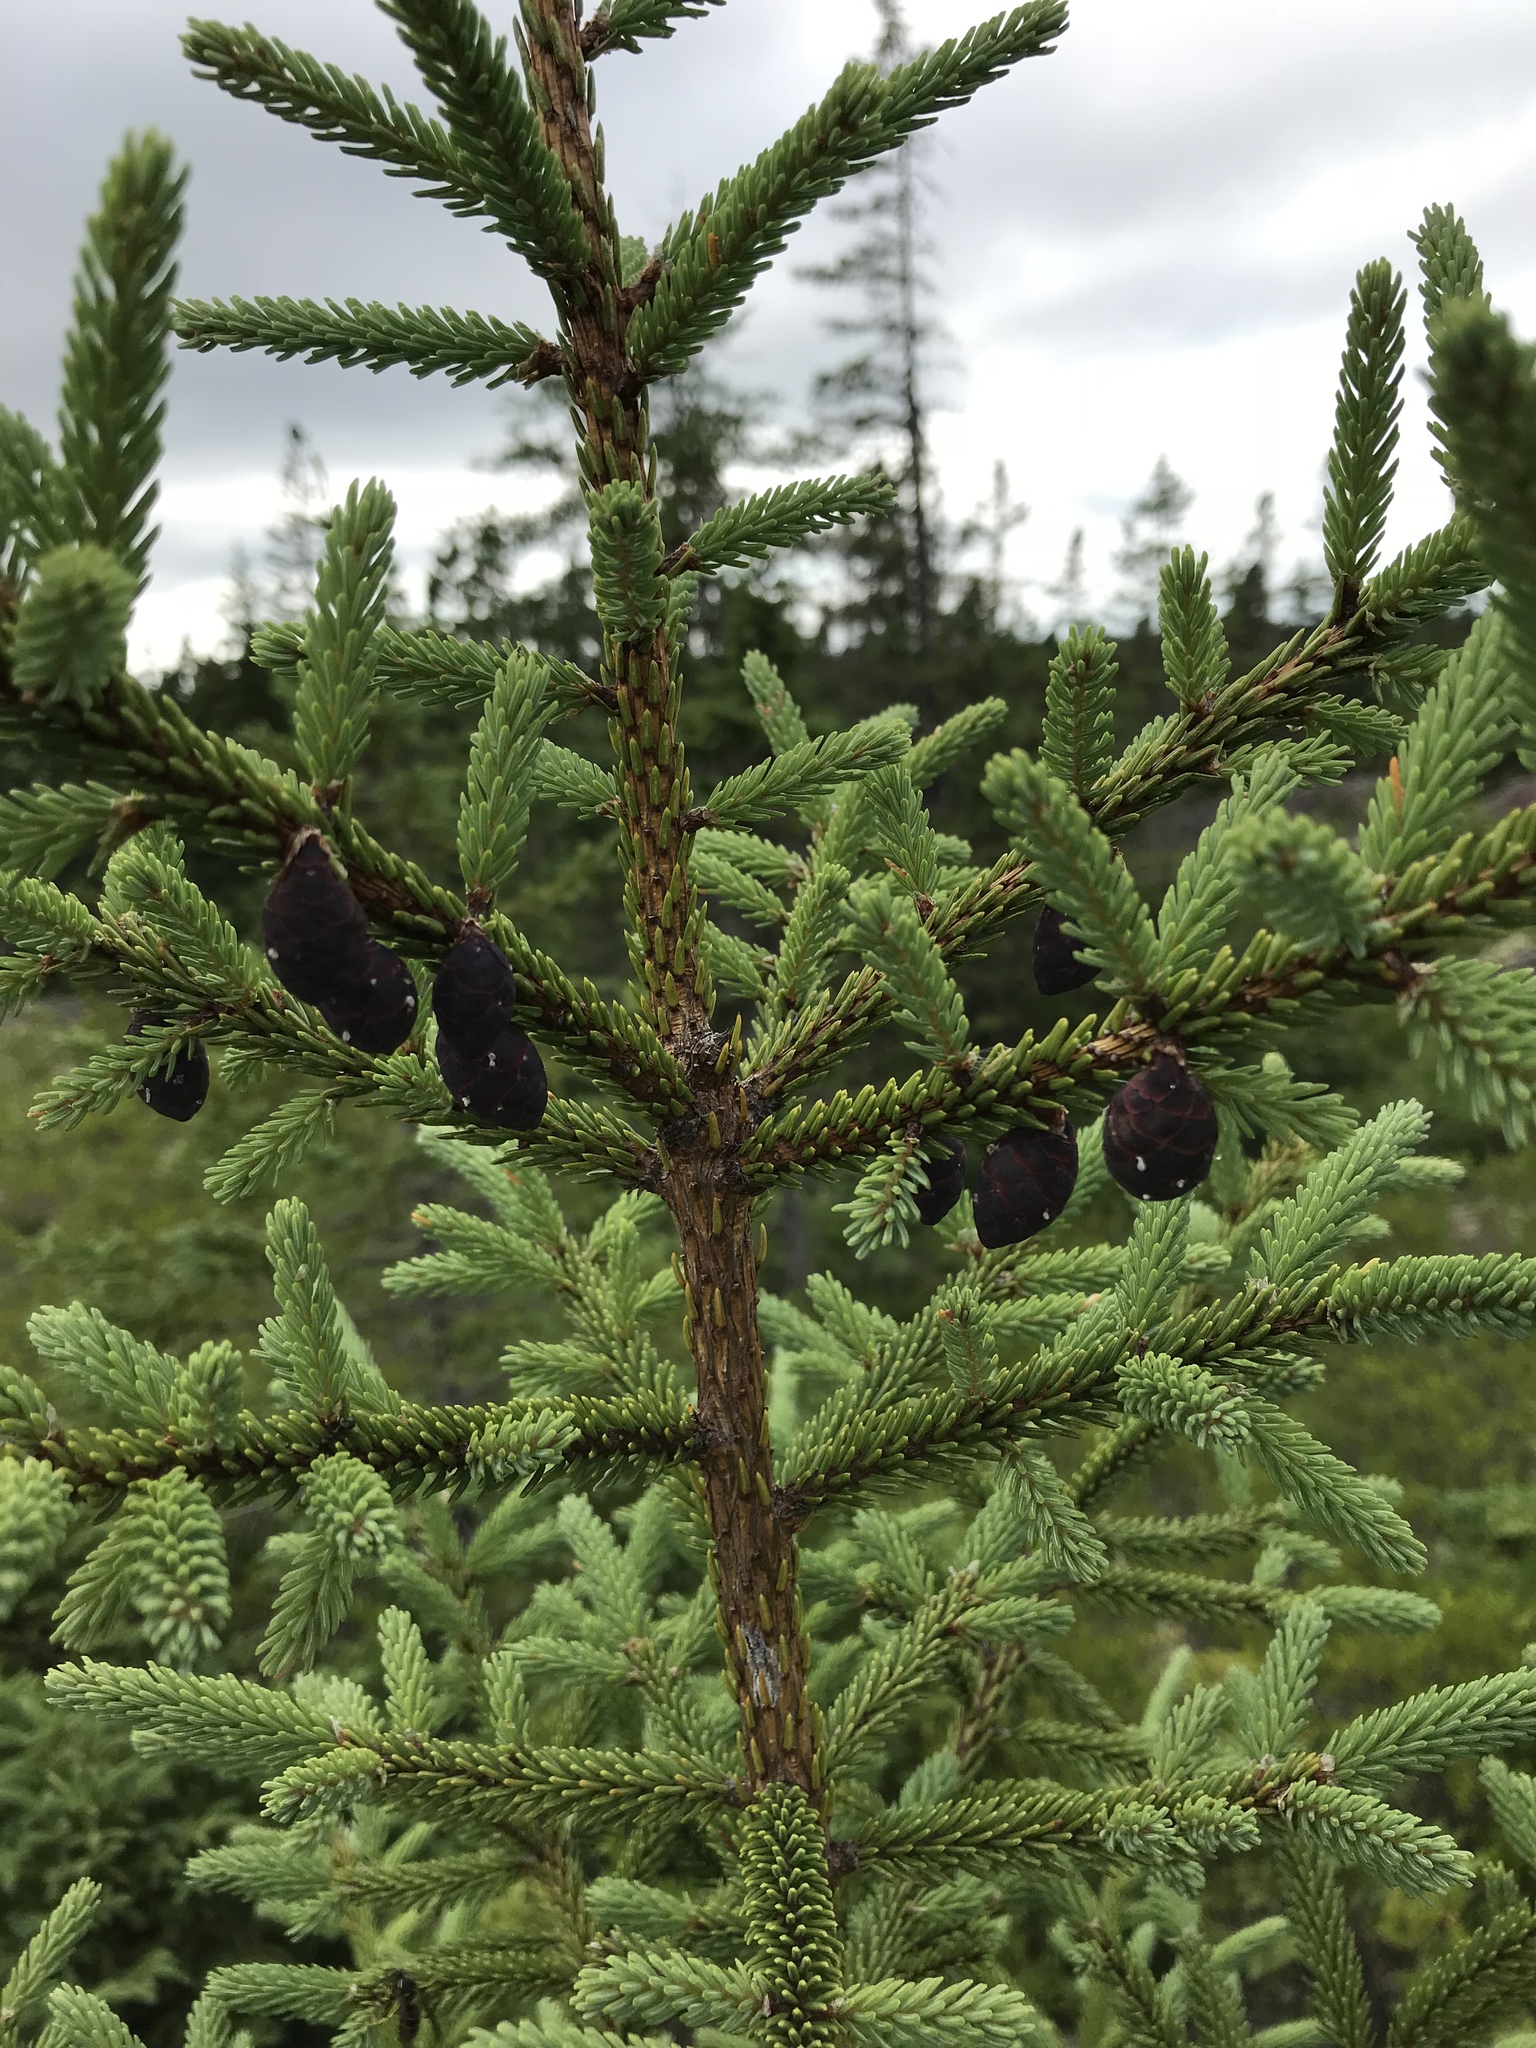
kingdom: Plantae
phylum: Tracheophyta
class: Pinopsida
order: Pinales
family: Pinaceae
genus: Picea
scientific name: Picea mariana
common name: Black spruce
